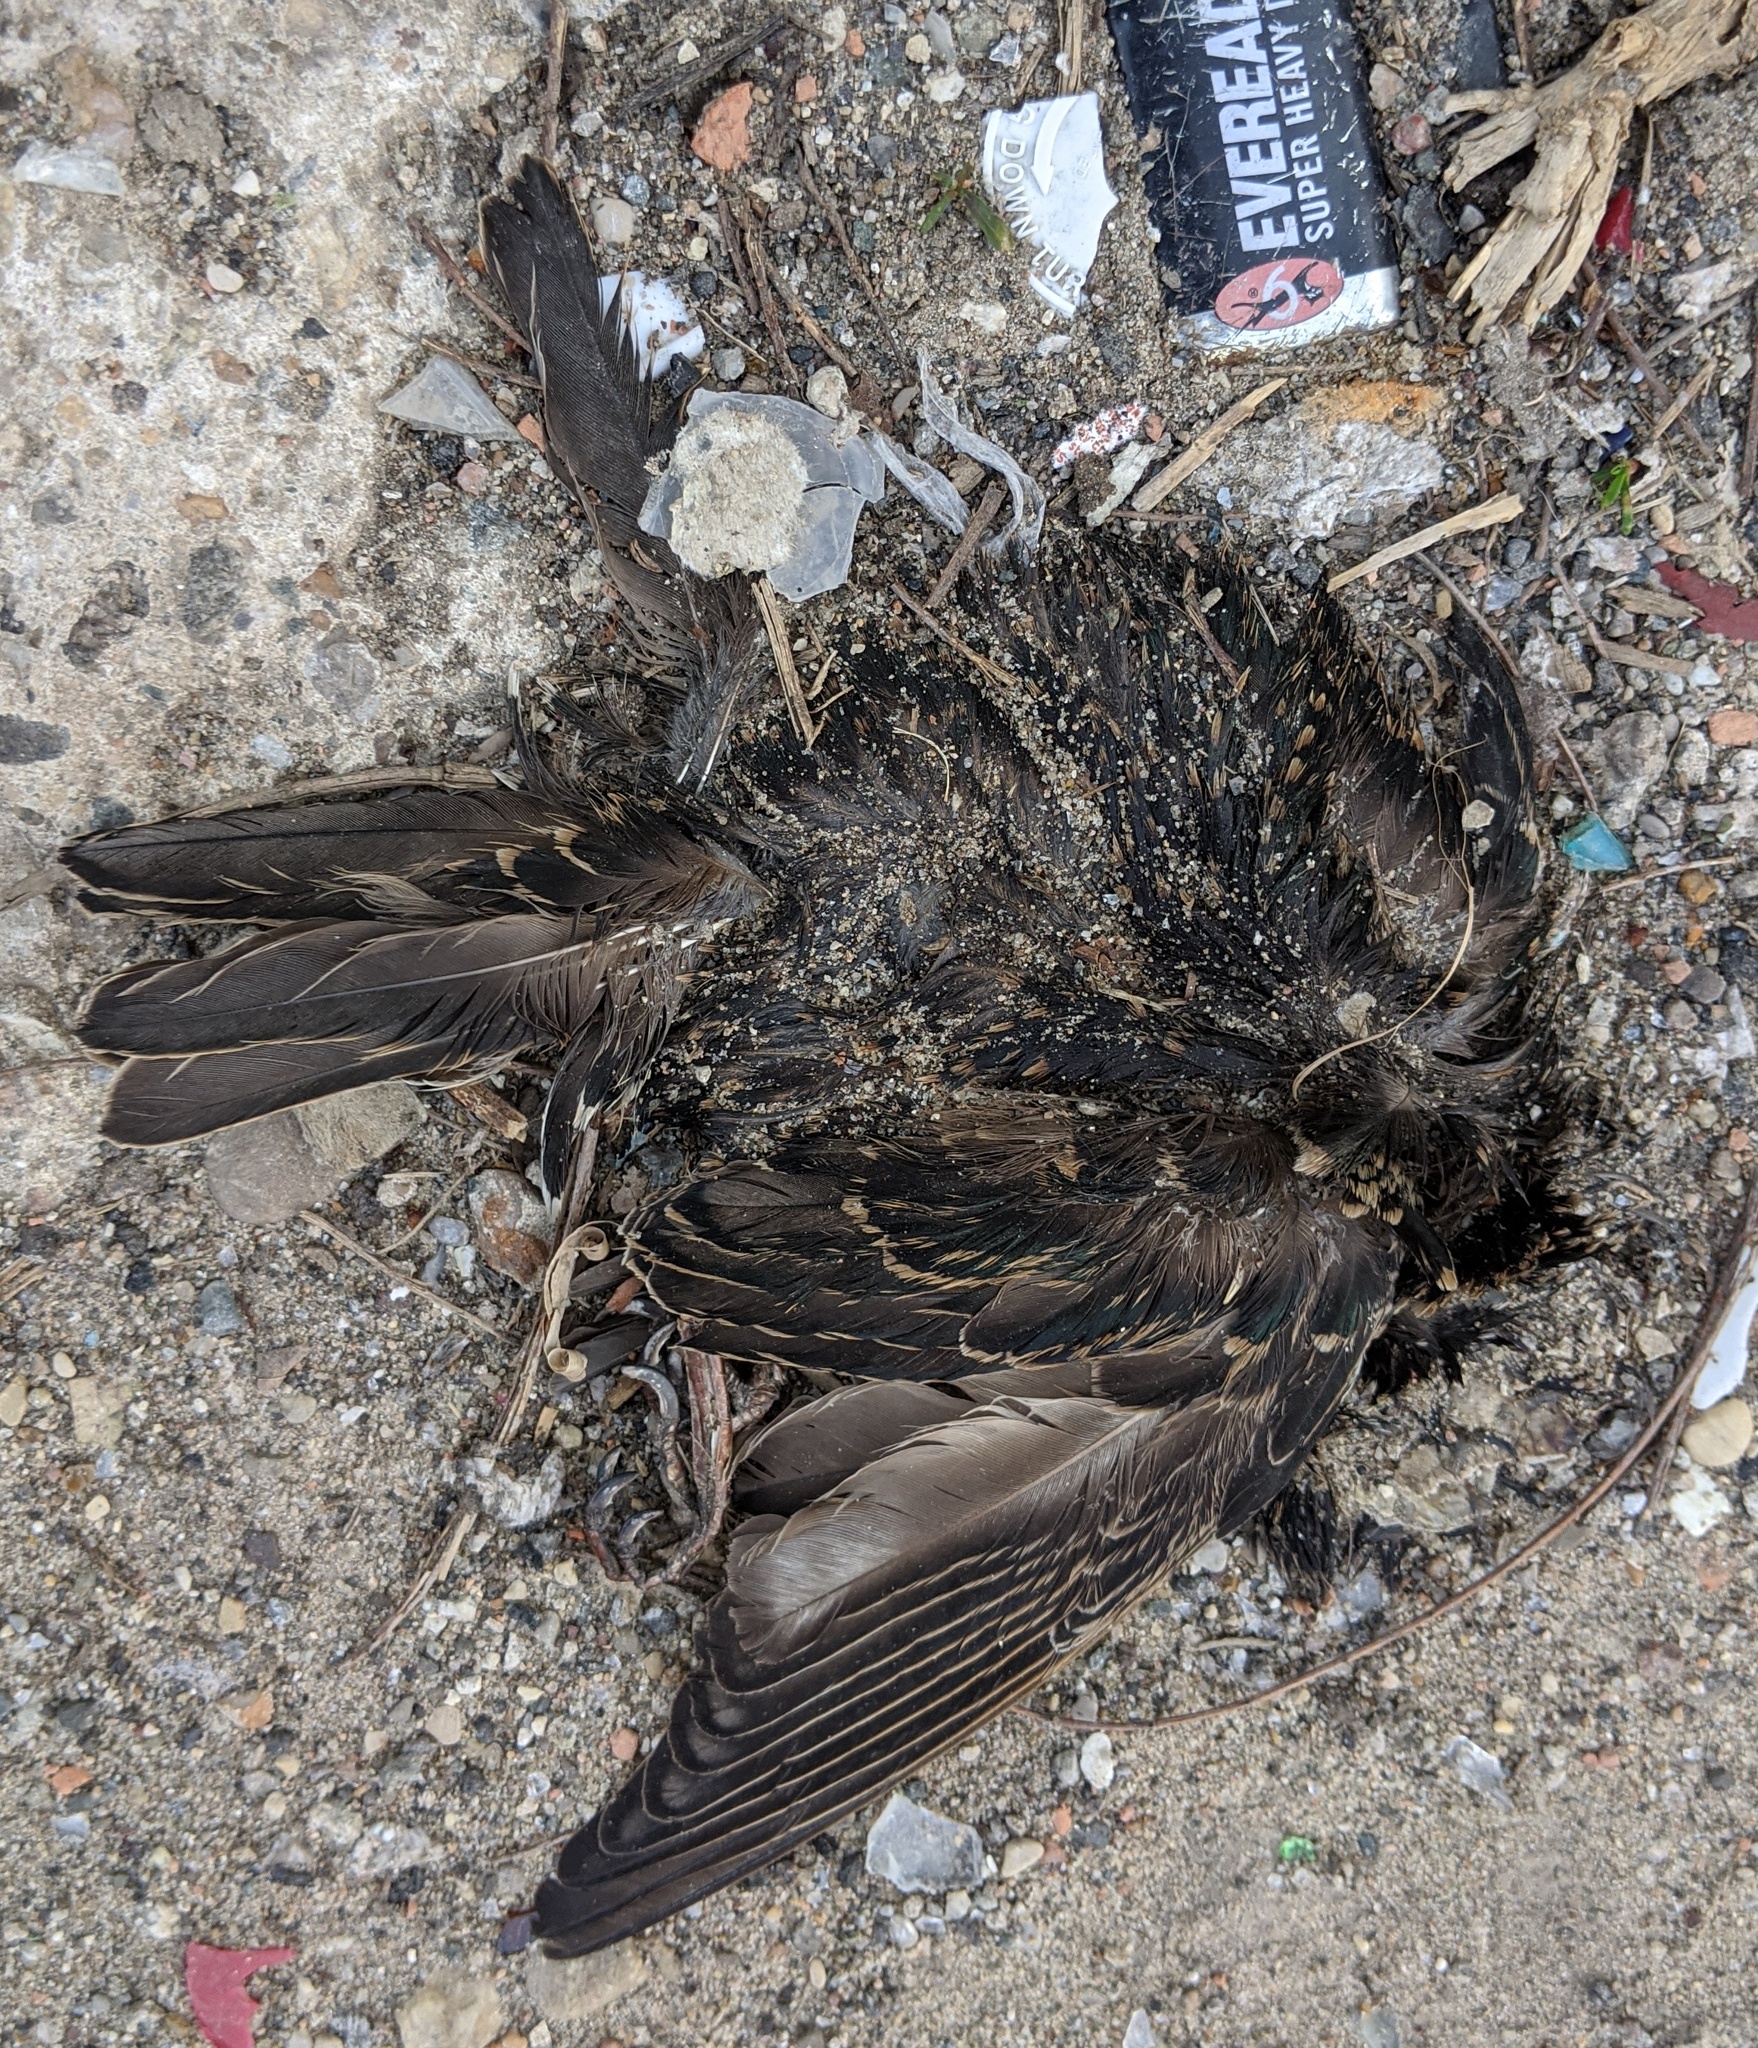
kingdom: Animalia
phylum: Chordata
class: Aves
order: Passeriformes
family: Sturnidae
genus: Sturnus
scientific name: Sturnus vulgaris
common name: Common starling
